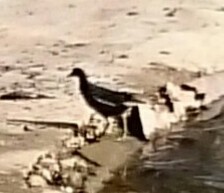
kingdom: Animalia
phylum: Chordata
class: Aves
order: Gruiformes
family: Rallidae
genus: Gallinula
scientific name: Gallinula chloropus
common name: Common moorhen
